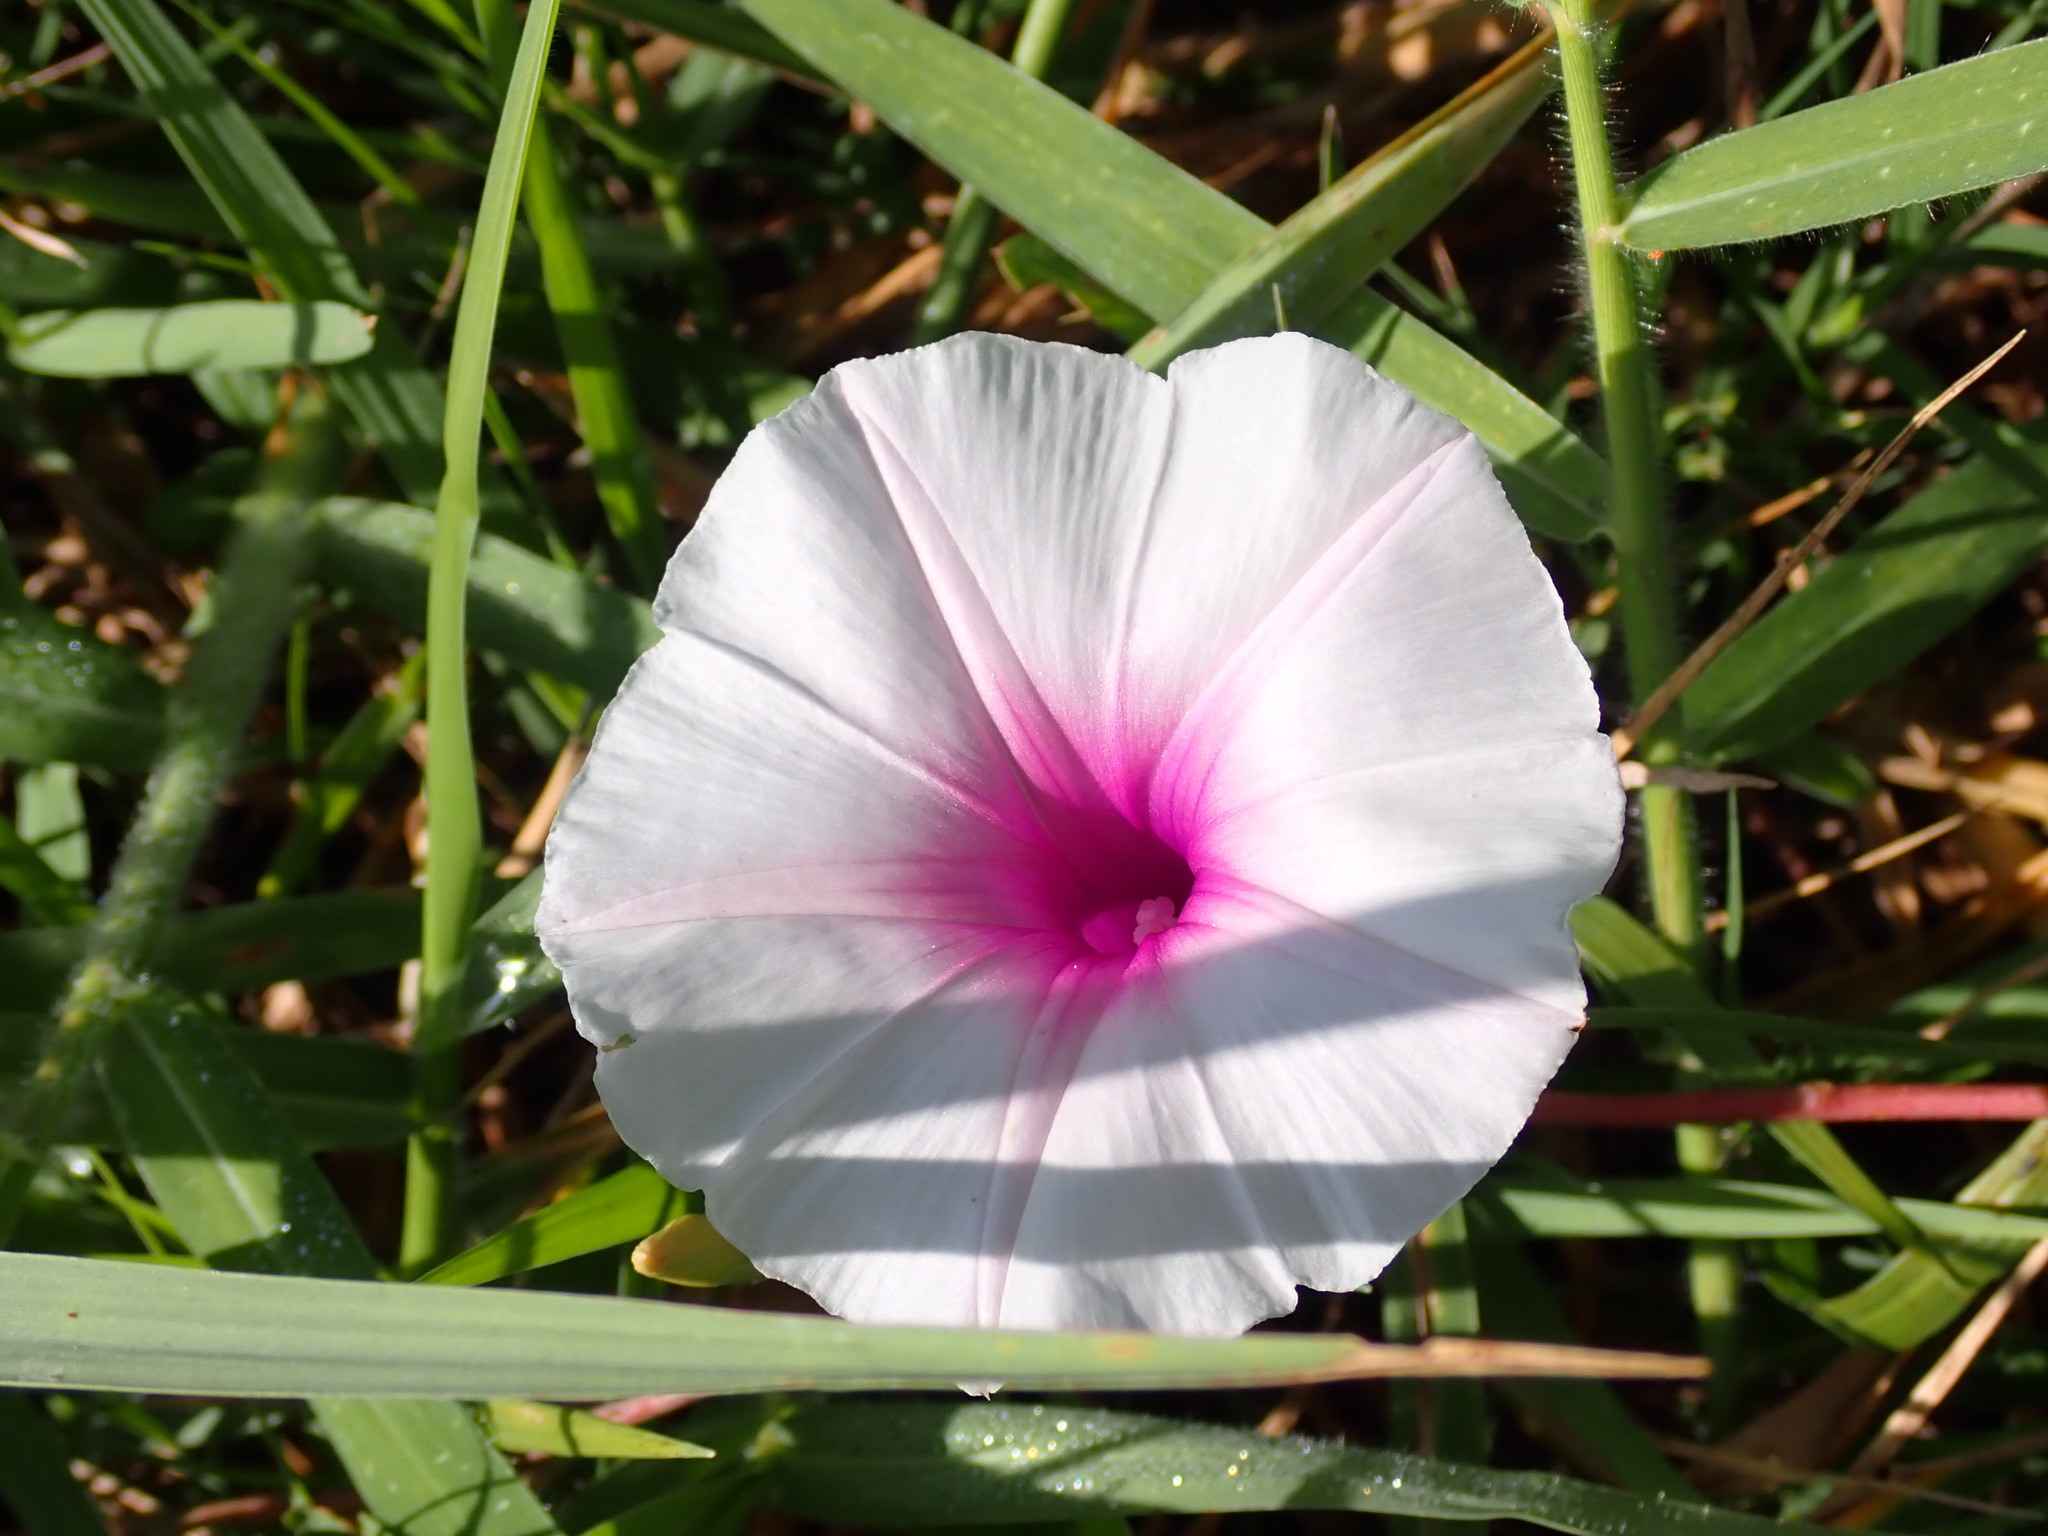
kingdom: Plantae
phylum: Tracheophyta
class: Magnoliopsida
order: Solanales
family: Convolvulaceae
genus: Ipomoea
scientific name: Ipomoea aquatica
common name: Swamp morning-glory
